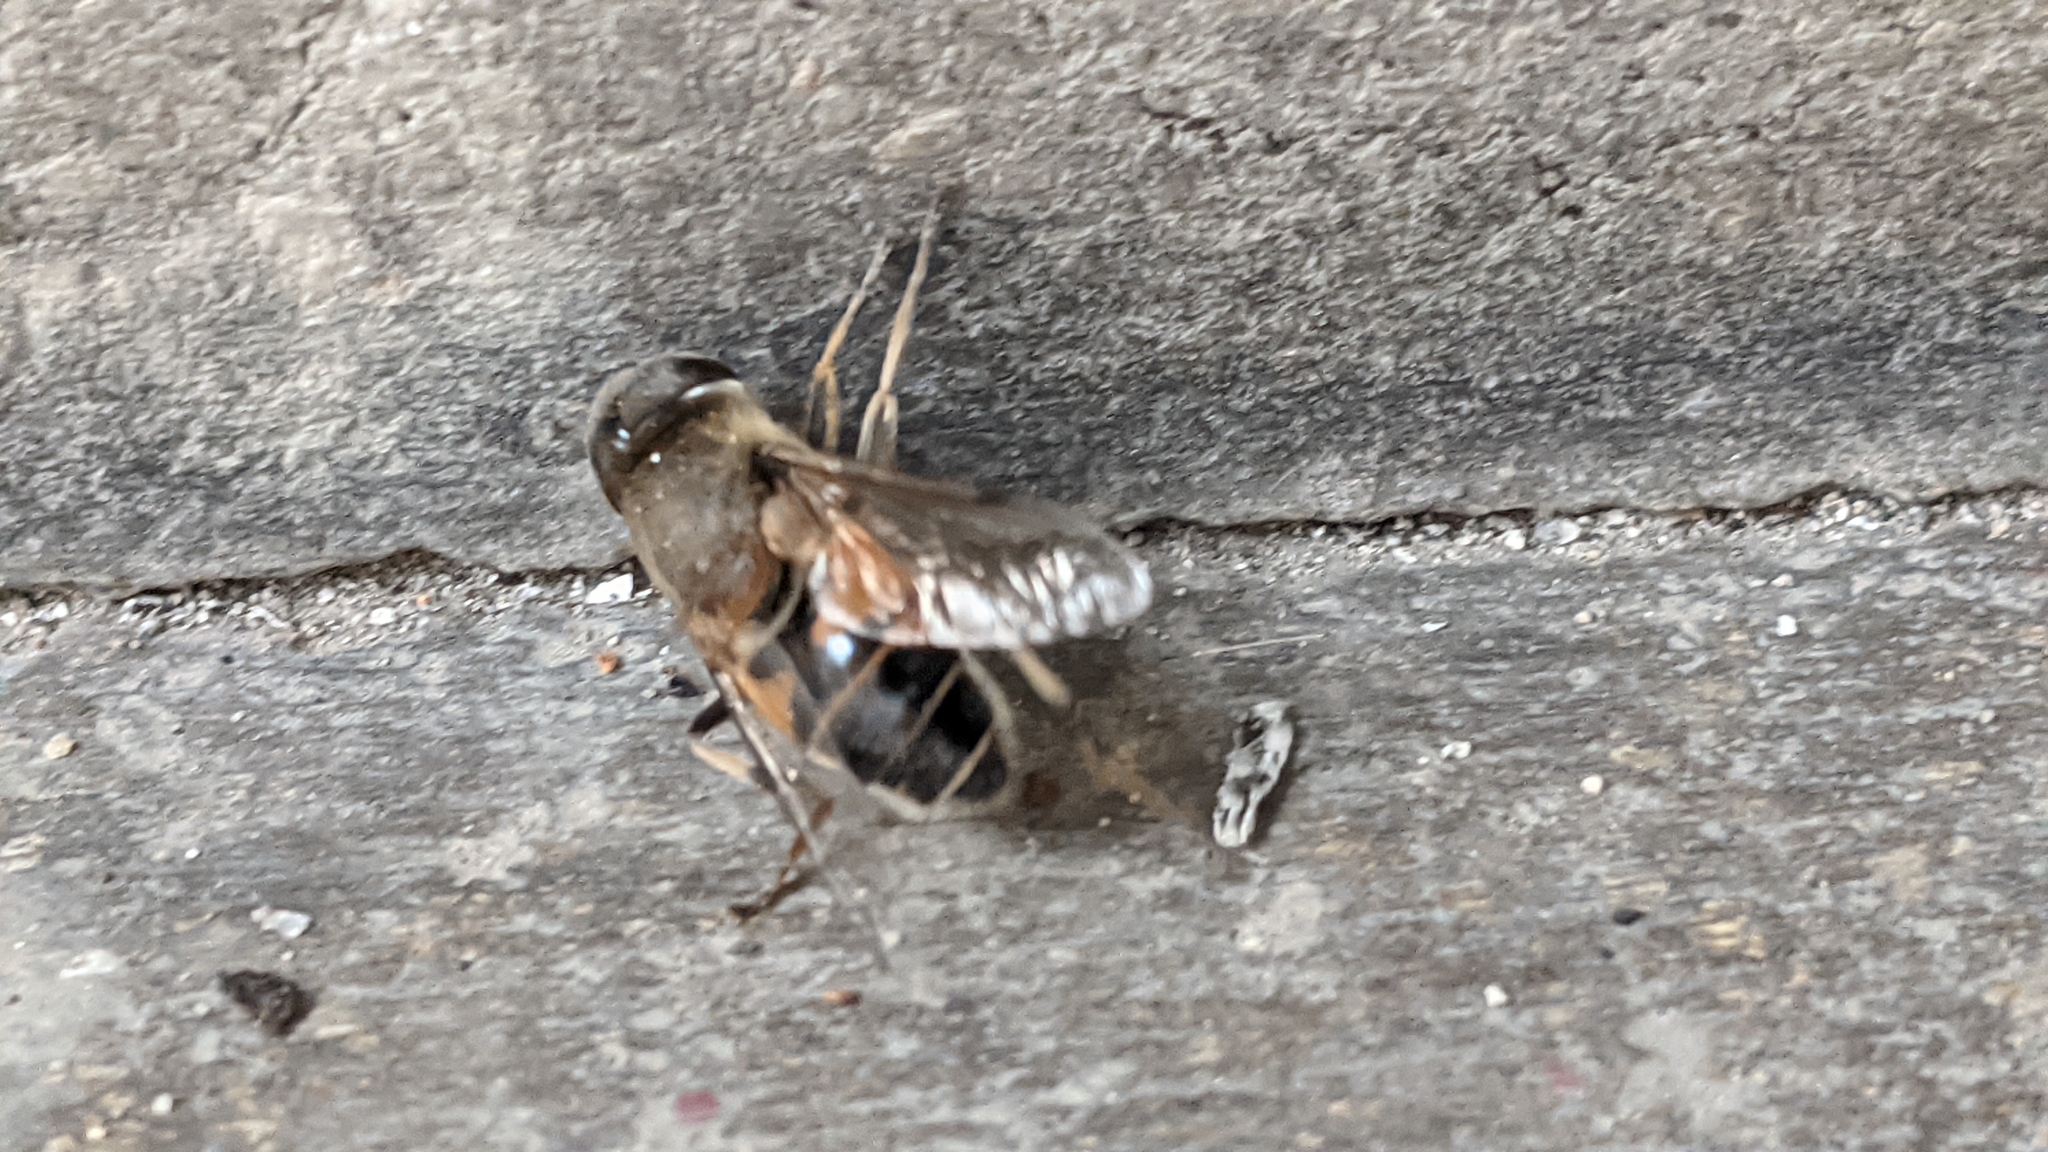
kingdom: Animalia
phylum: Arthropoda
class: Insecta
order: Diptera
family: Syrphidae
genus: Eristalis
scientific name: Eristalis pertinax
